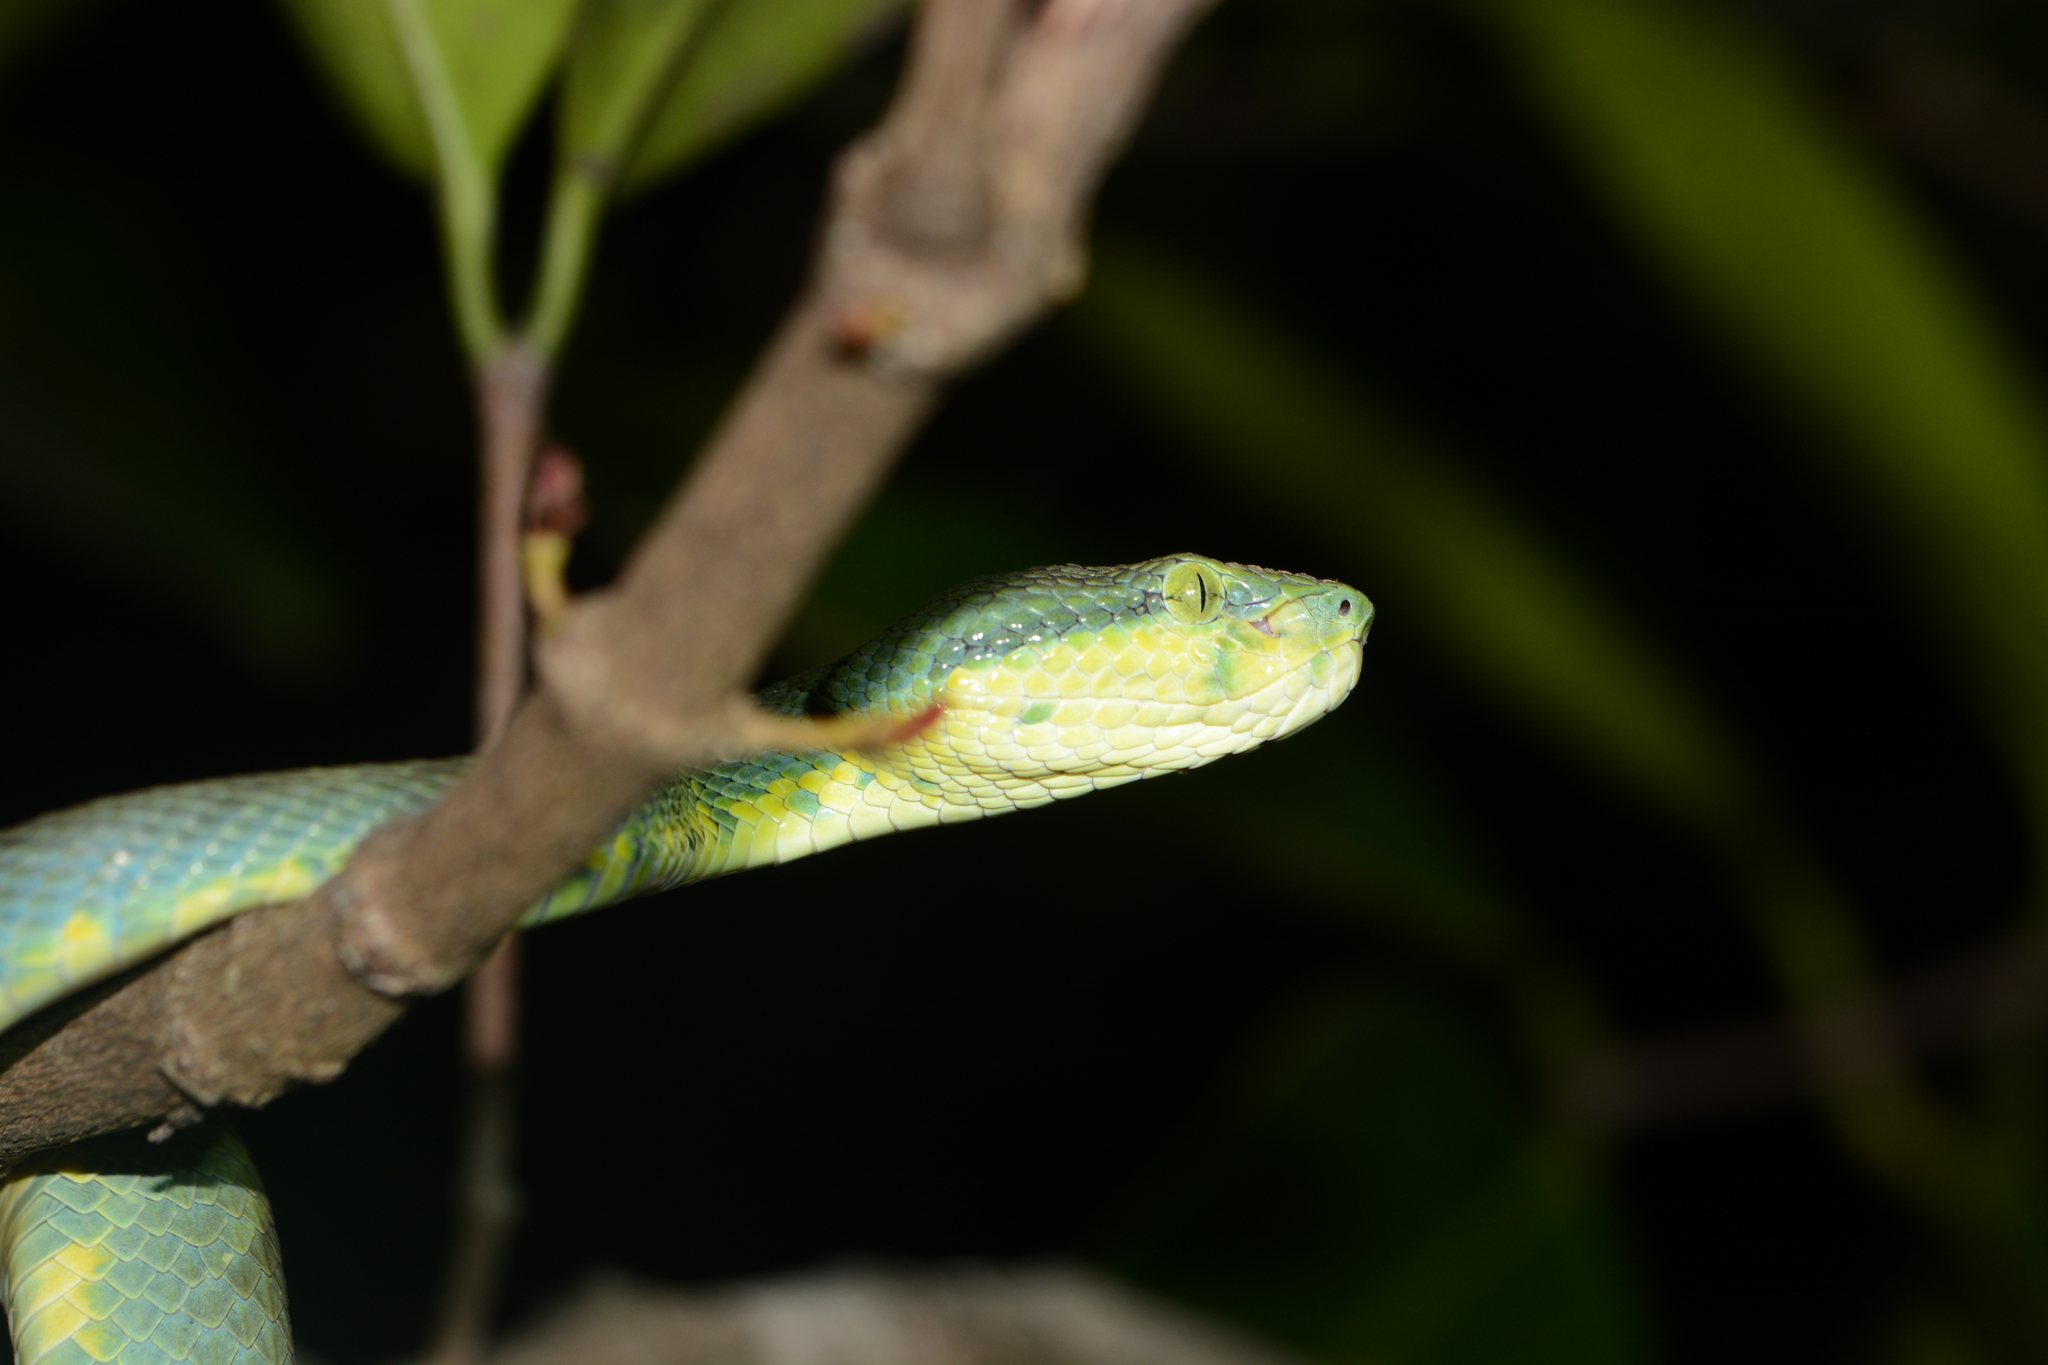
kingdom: Animalia
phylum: Chordata
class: Squamata
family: Viperidae
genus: Craspedocephalus
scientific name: Craspedocephalus gramineus
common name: Common bamboo viper
